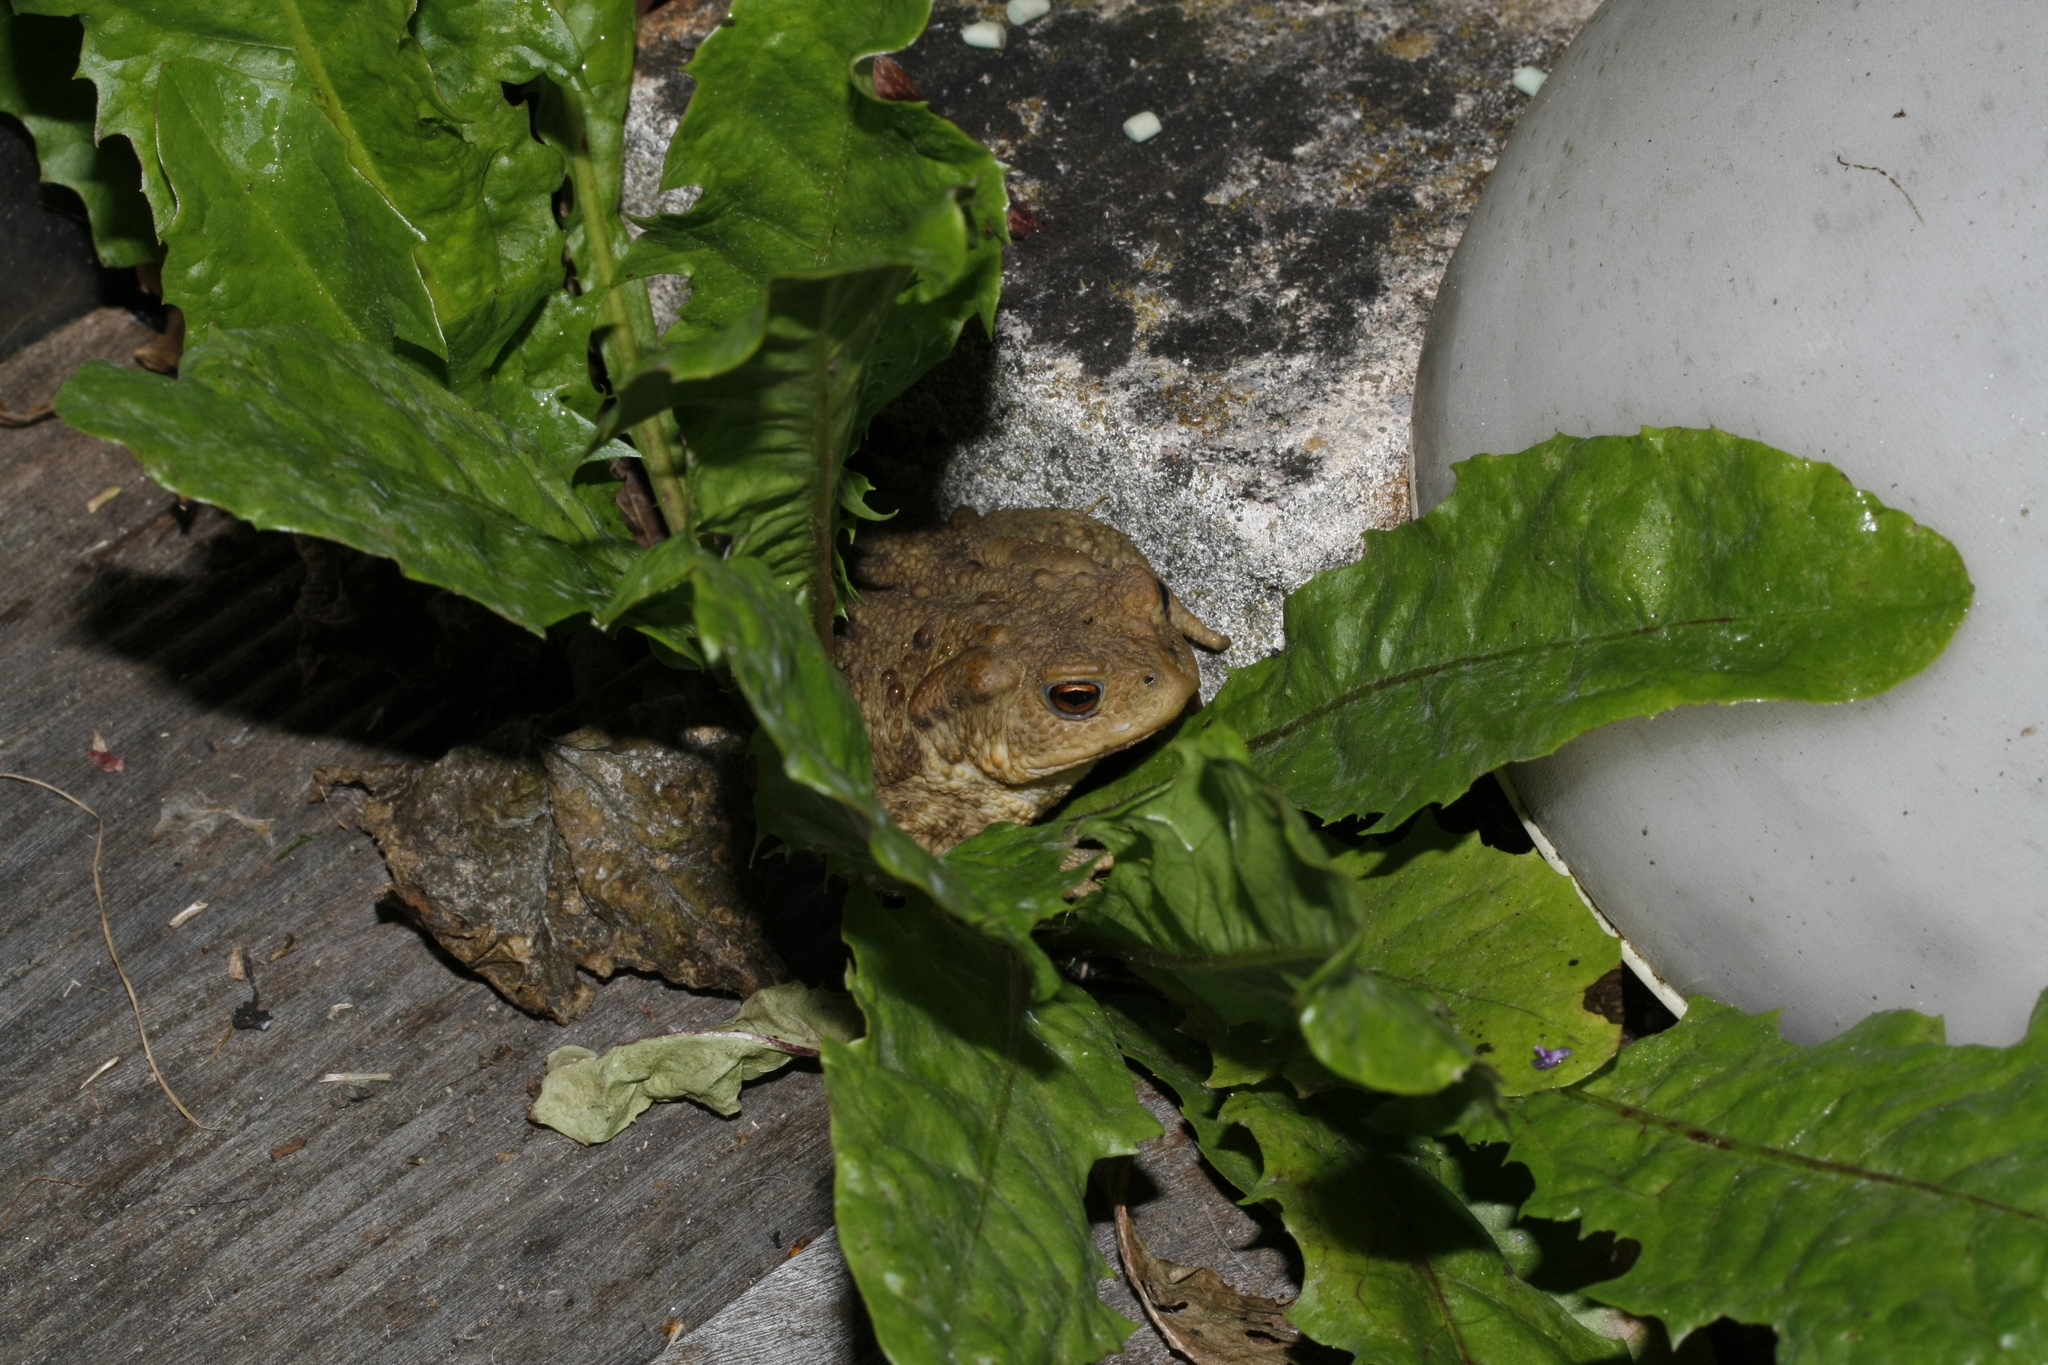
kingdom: Animalia
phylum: Chordata
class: Amphibia
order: Anura
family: Bufonidae
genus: Bufo
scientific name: Bufo bufo
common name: Common toad
